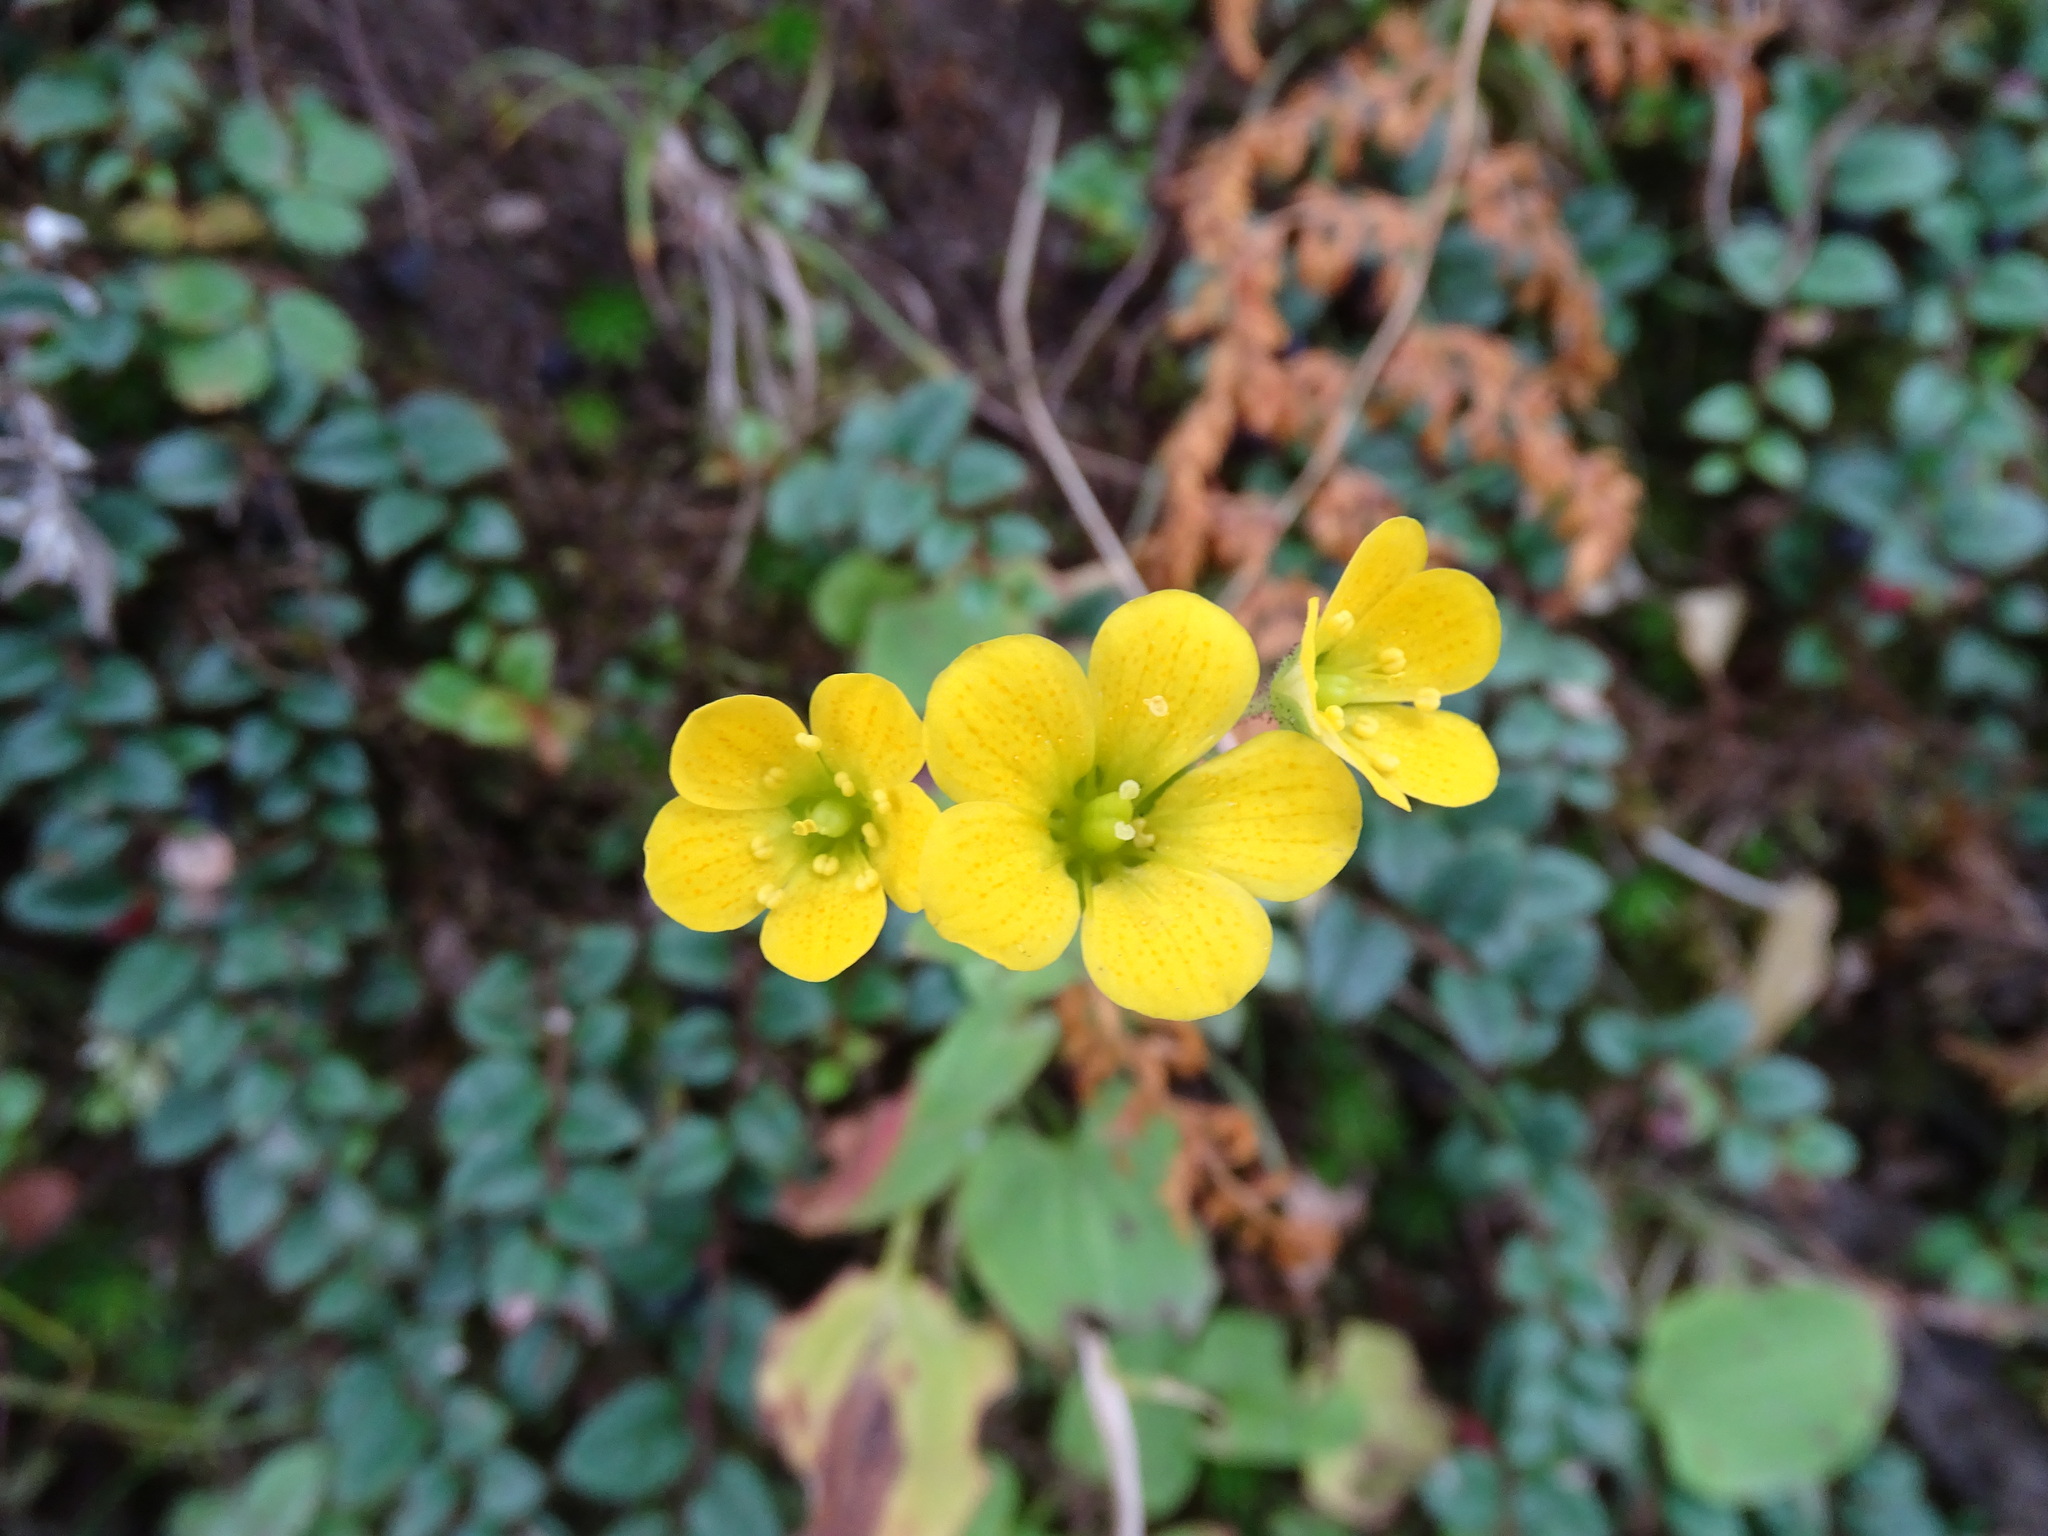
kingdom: Plantae
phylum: Tracheophyta
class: Magnoliopsida
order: Saxifragales
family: Saxifragaceae
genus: Saxifraga
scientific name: Saxifraga parnassifolia
